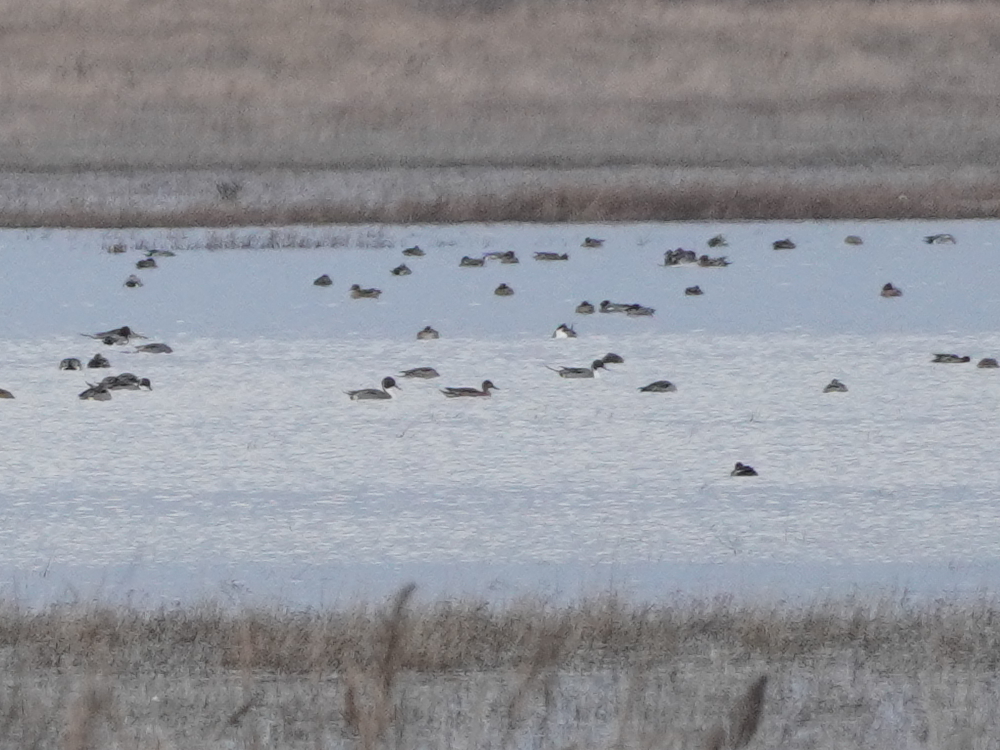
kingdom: Animalia
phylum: Chordata
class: Aves
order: Anseriformes
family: Anatidae
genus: Anas
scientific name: Anas acuta
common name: Northern pintail
